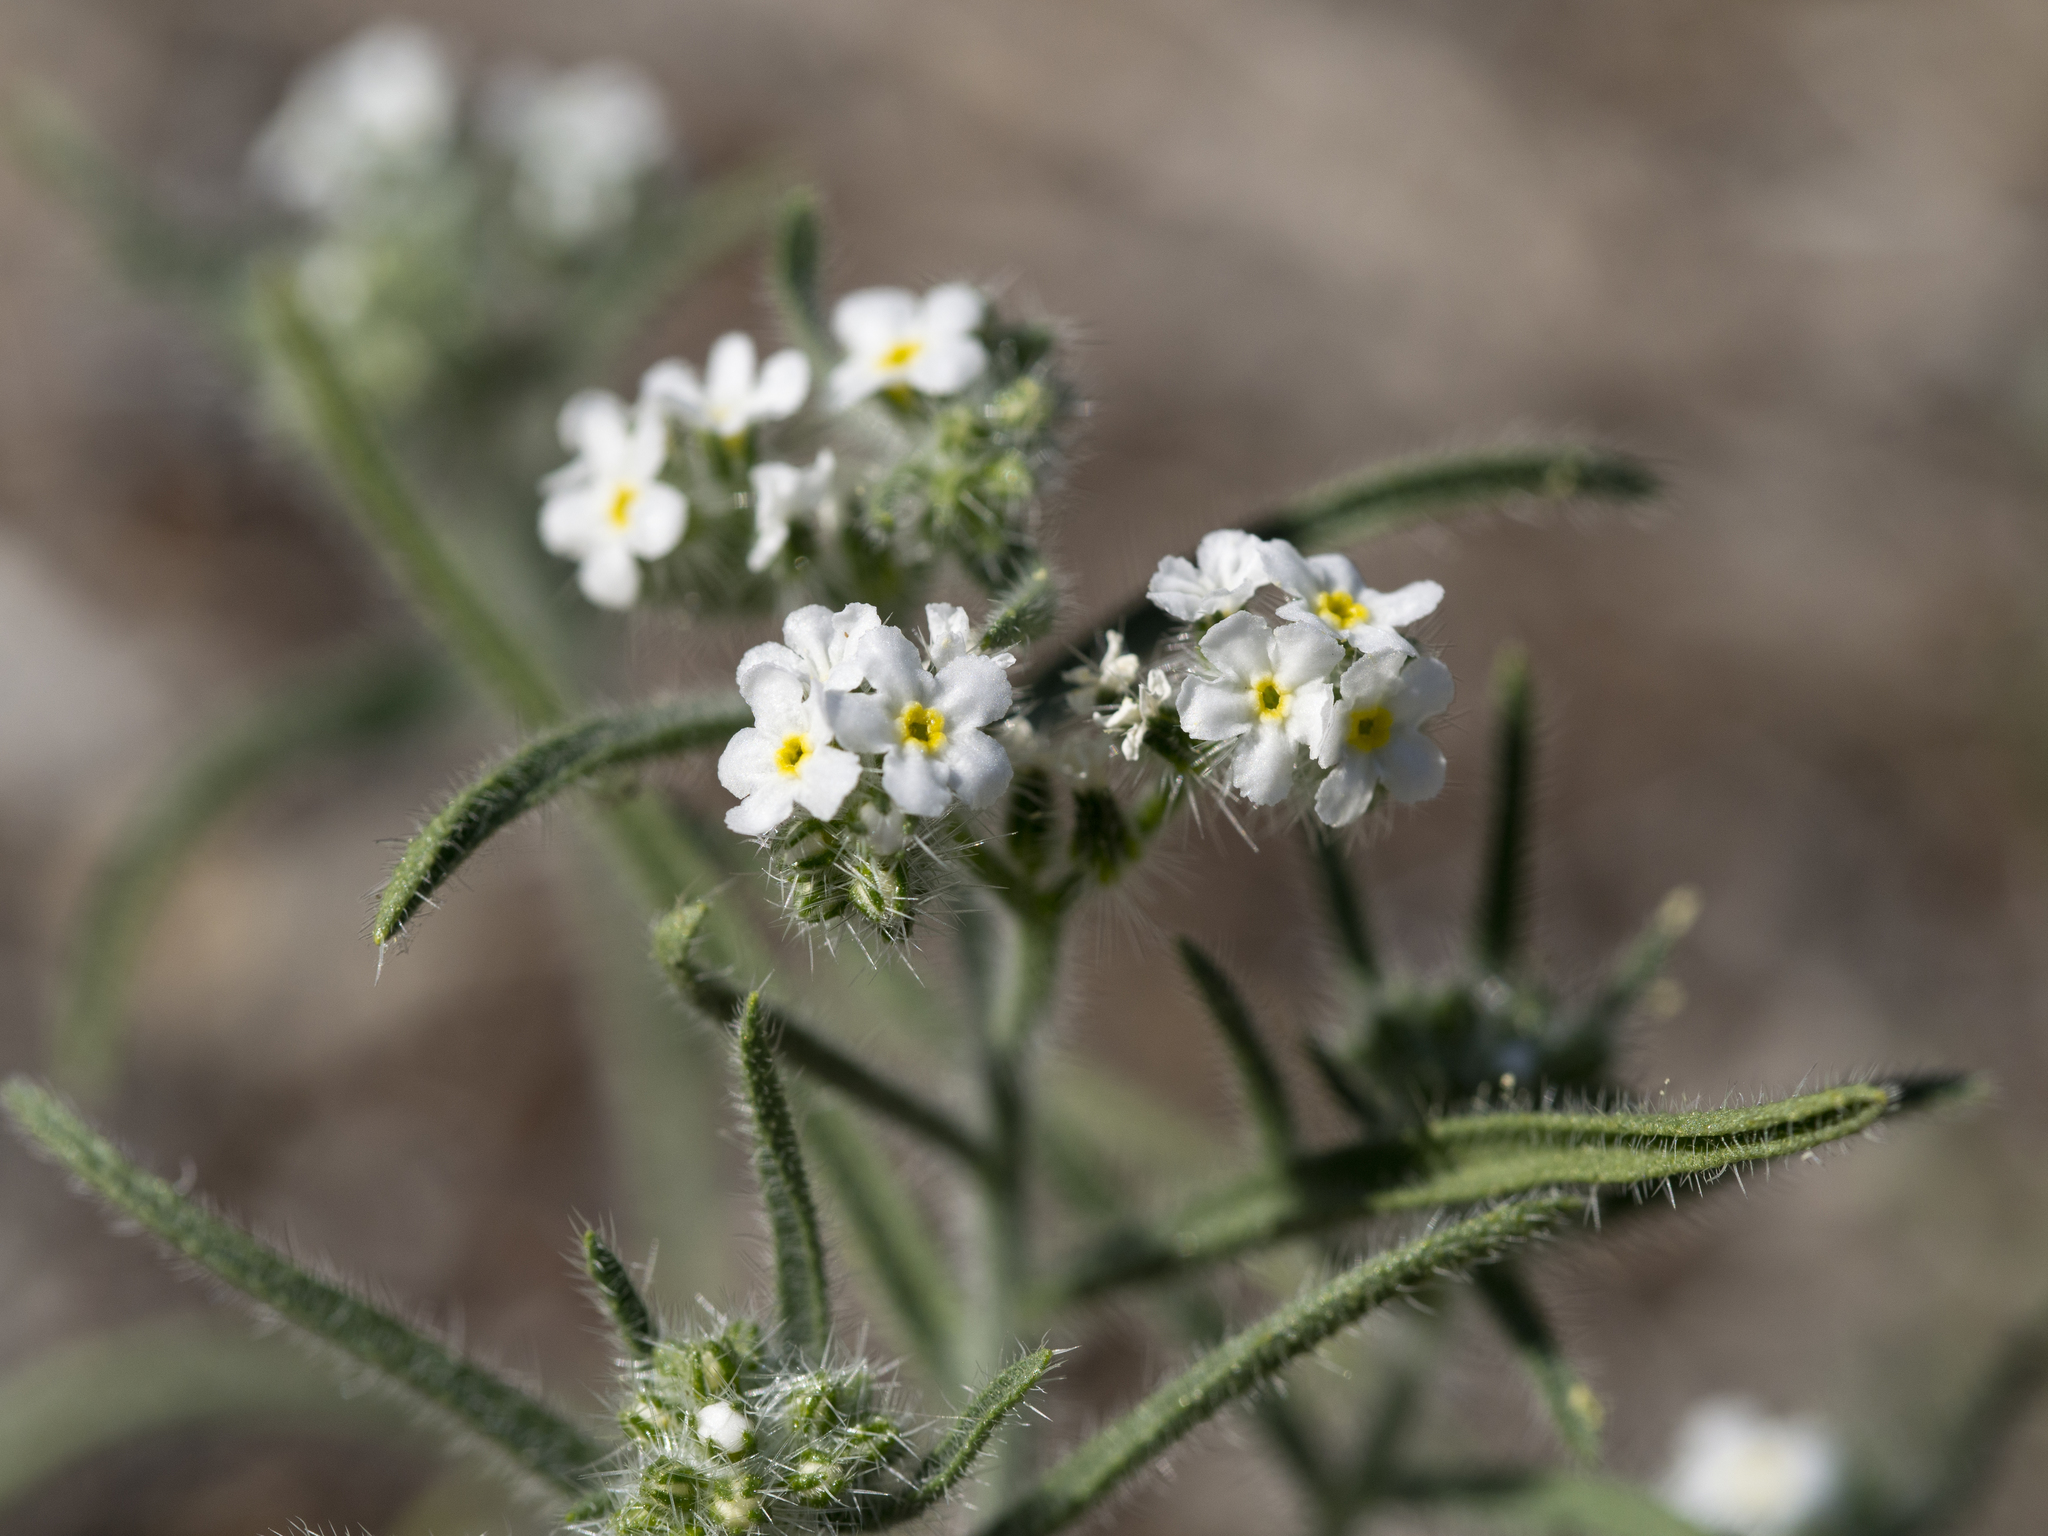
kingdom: Plantae
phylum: Tracheophyta
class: Magnoliopsida
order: Boraginales
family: Boraginaceae
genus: Johnstonella
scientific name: Johnstonella angustifolia
